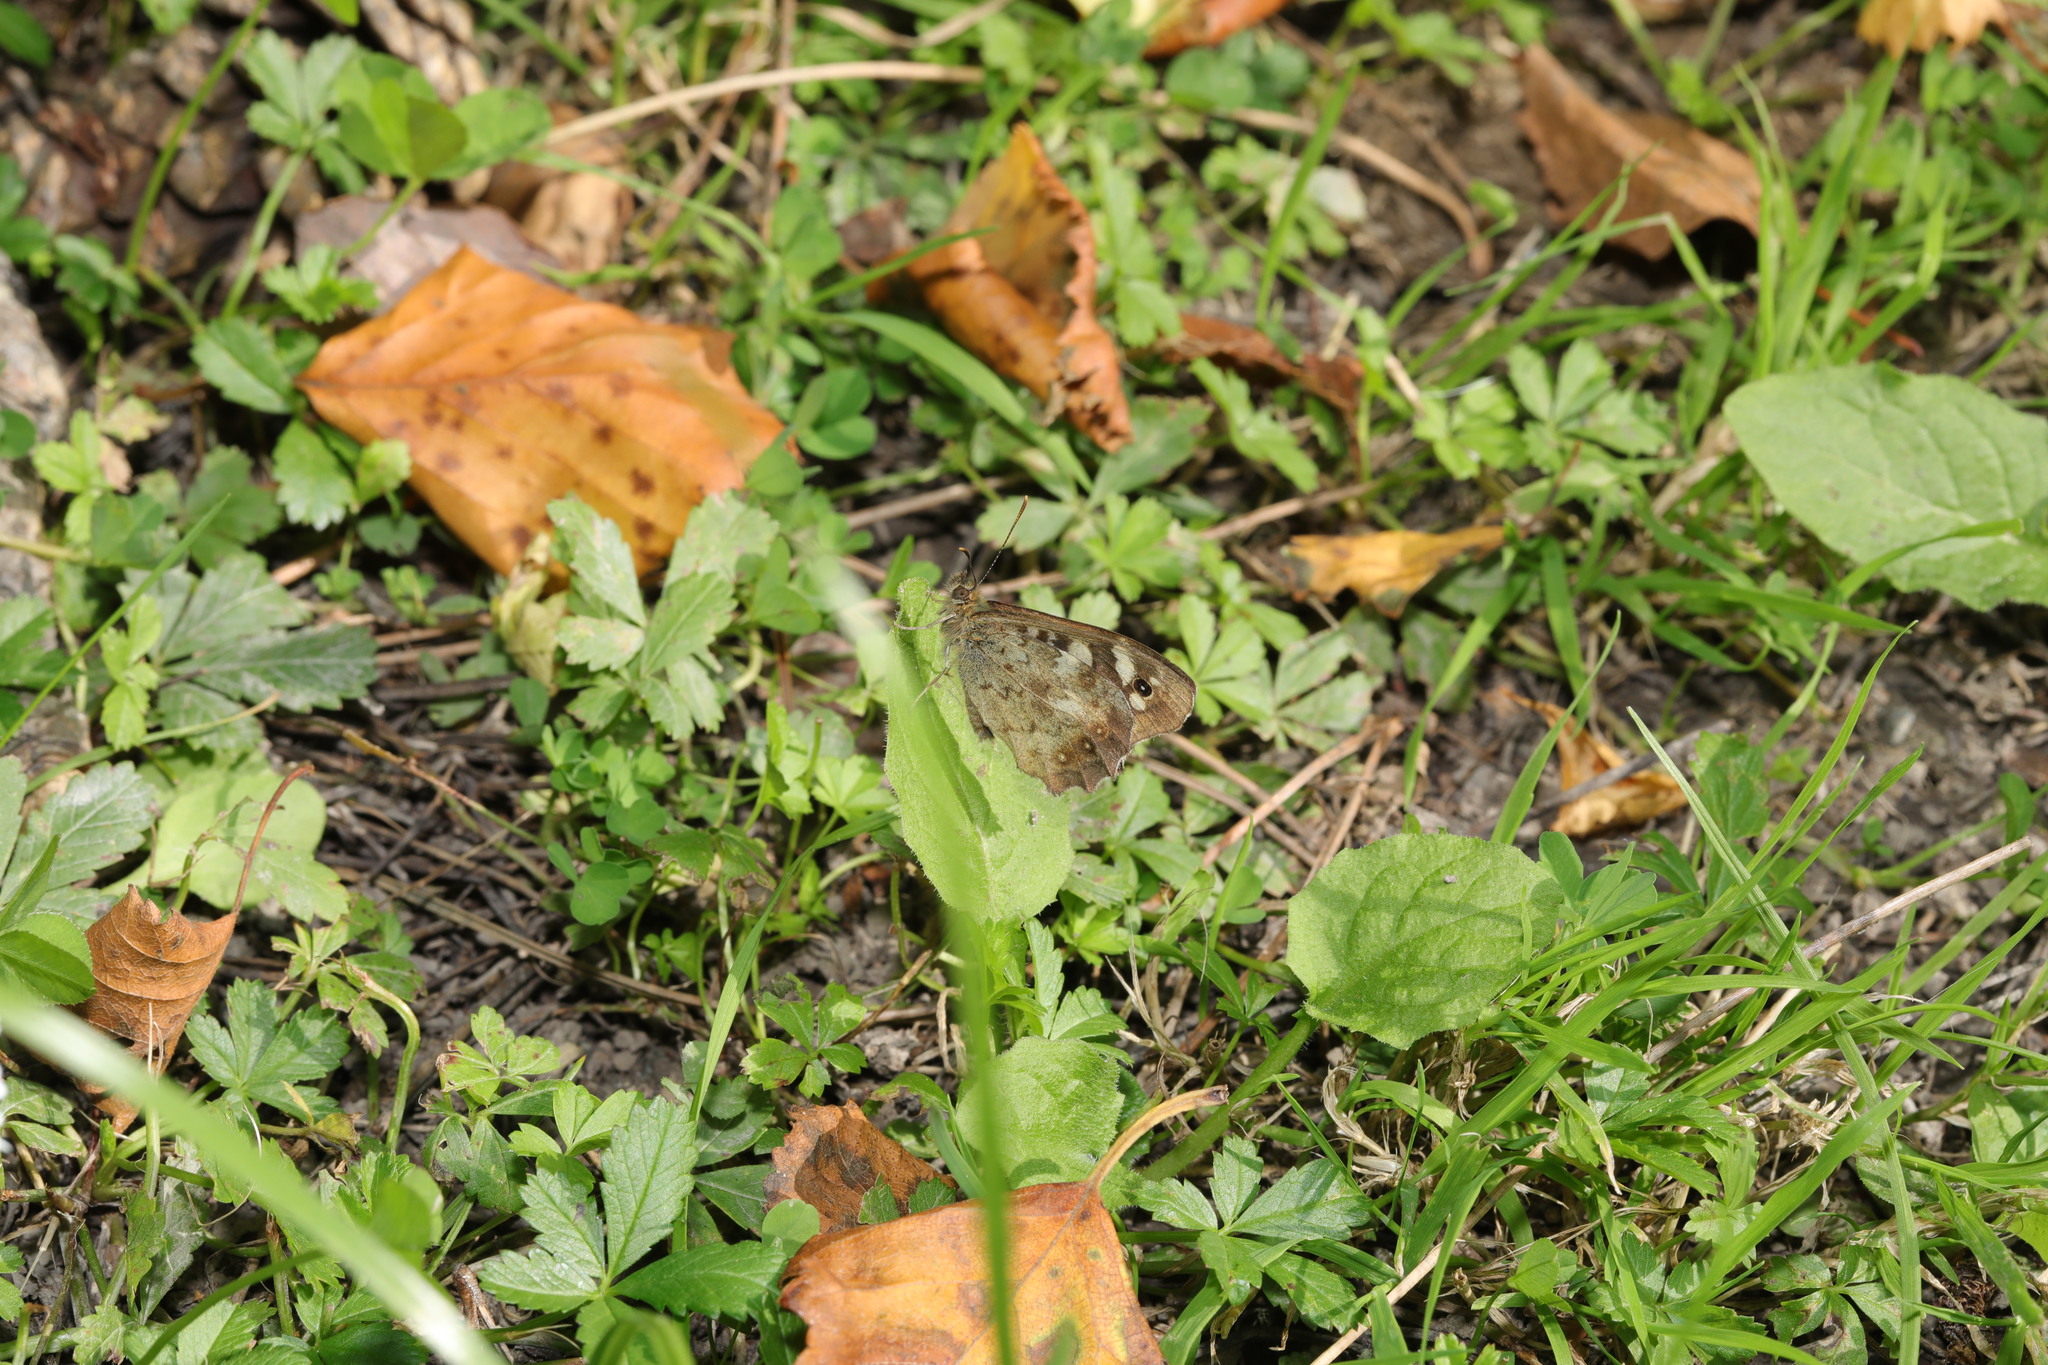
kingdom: Animalia
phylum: Arthropoda
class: Insecta
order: Lepidoptera
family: Nymphalidae
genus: Pararge
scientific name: Pararge aegeria
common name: Speckled wood
